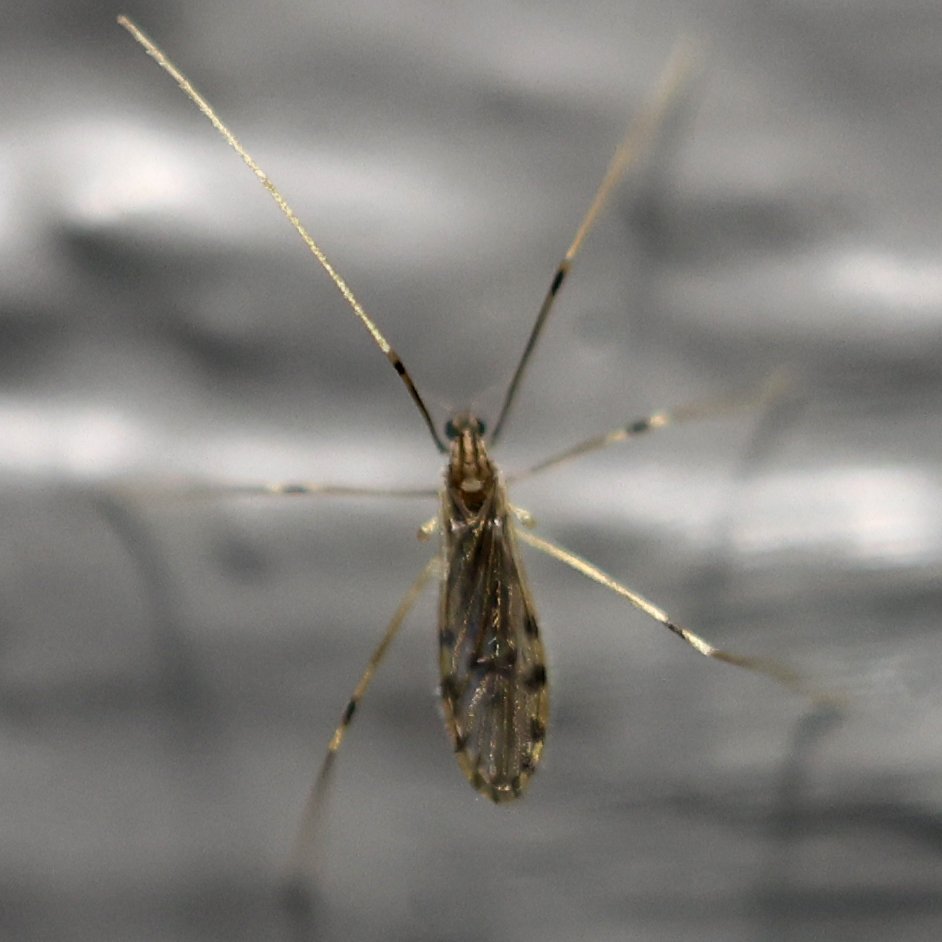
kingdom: Animalia
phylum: Arthropoda
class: Insecta
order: Diptera
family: Limoniidae
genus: Erioptera
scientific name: Erioptera parva
